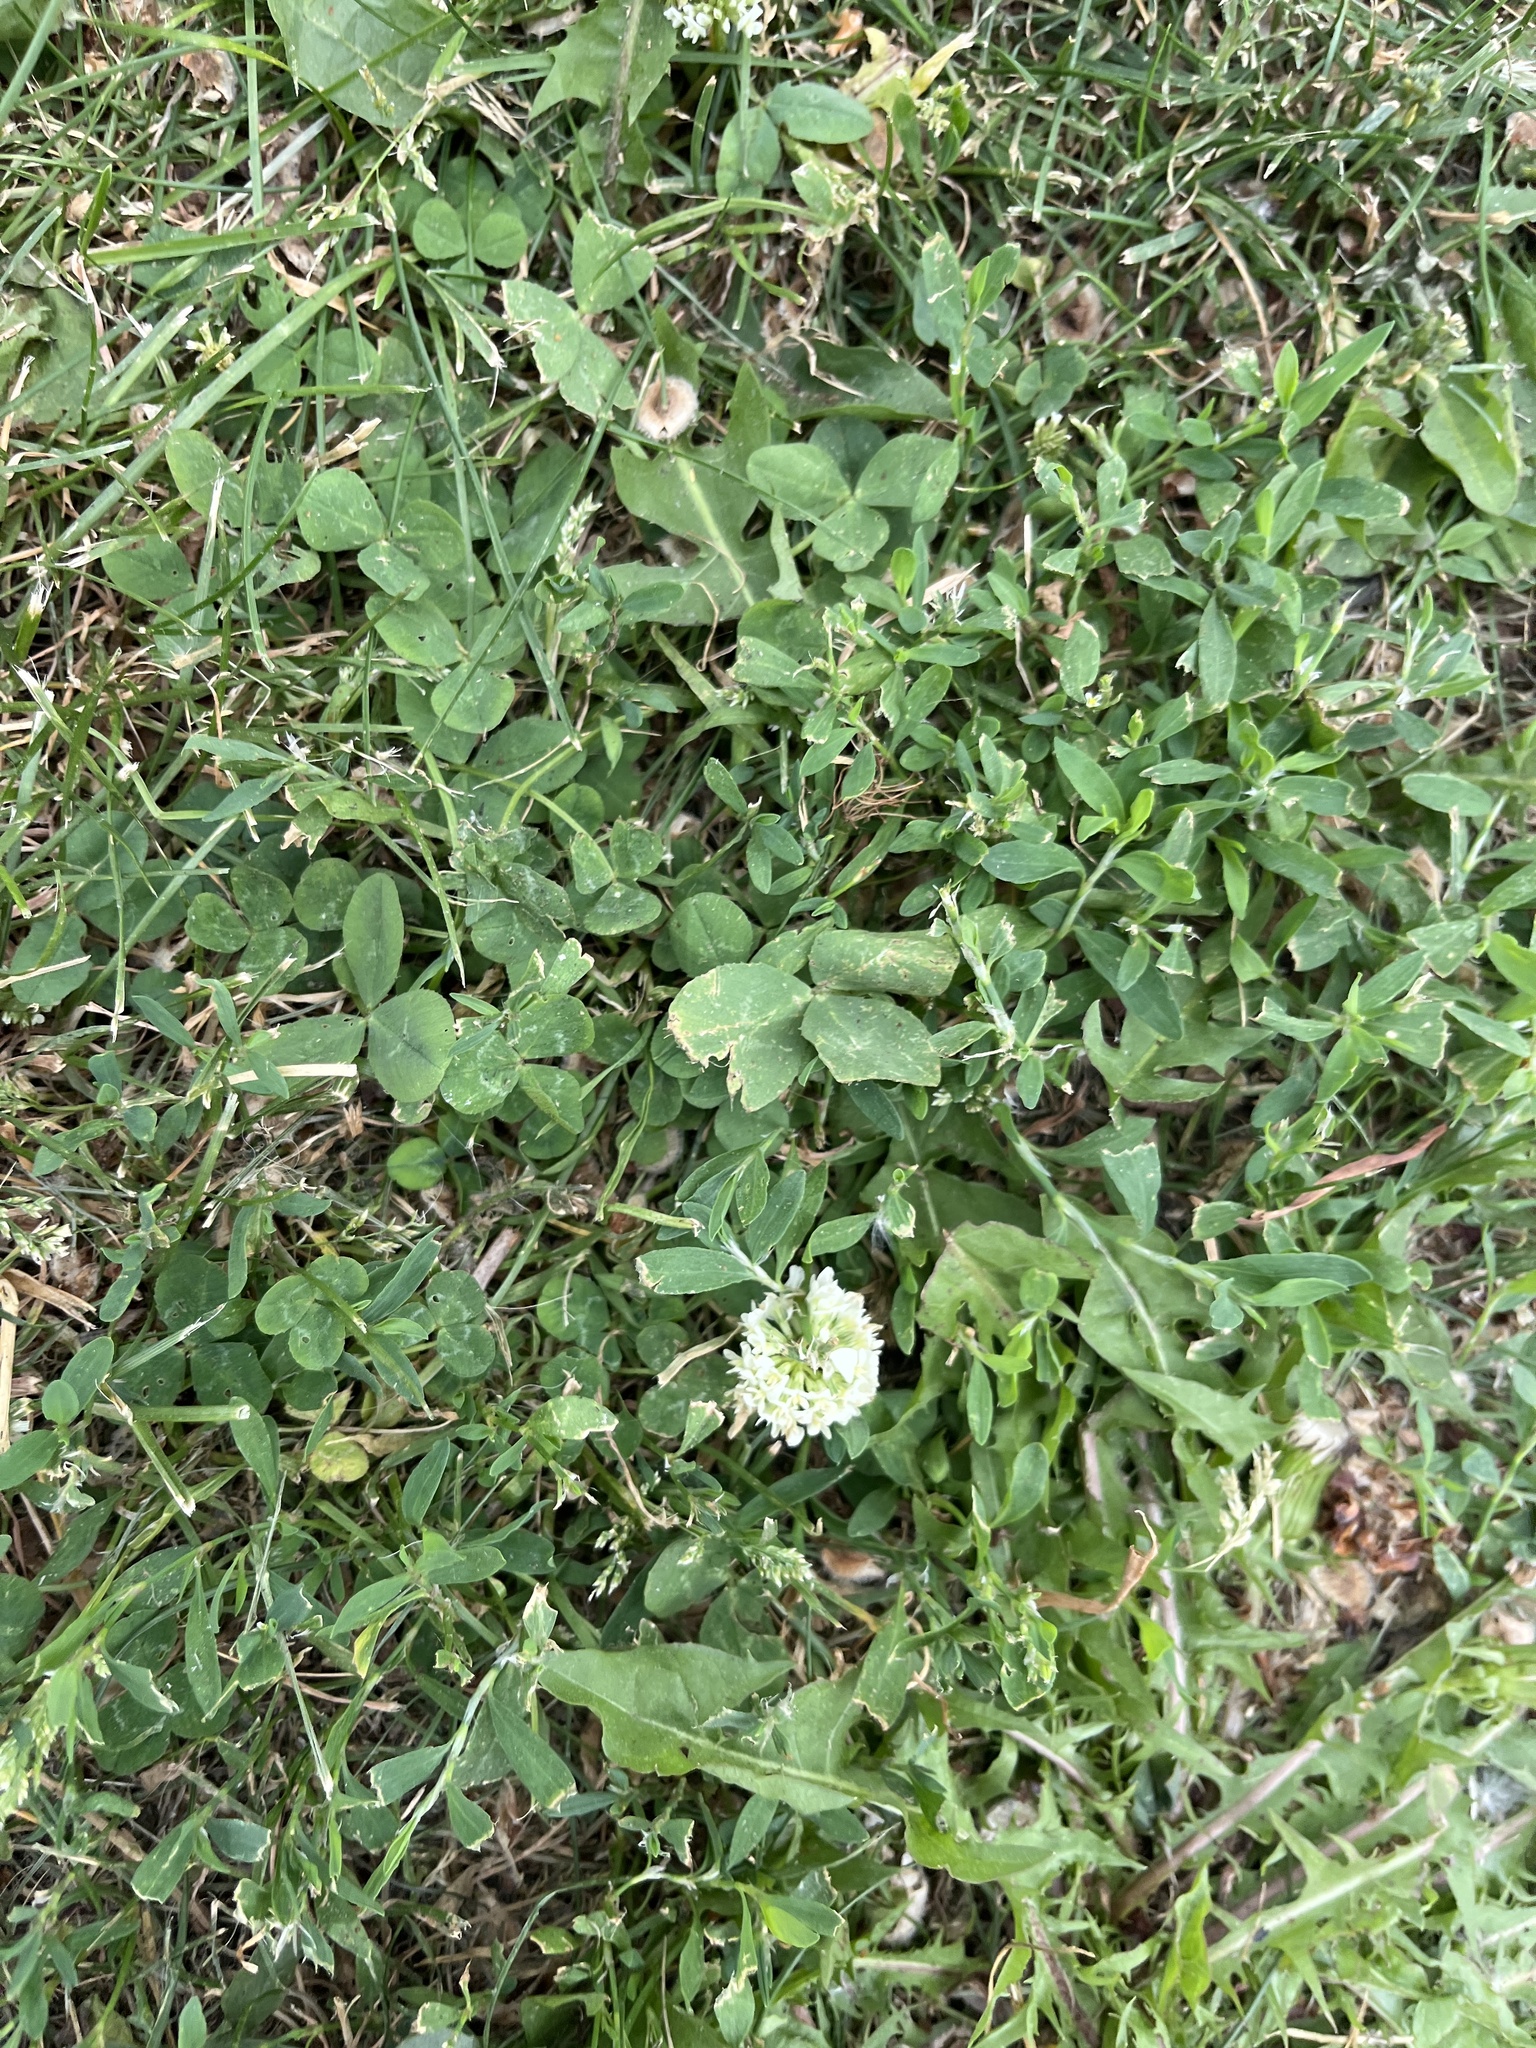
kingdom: Plantae
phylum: Tracheophyta
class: Magnoliopsida
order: Fabales
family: Fabaceae
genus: Trifolium
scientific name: Trifolium repens
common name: White clover
